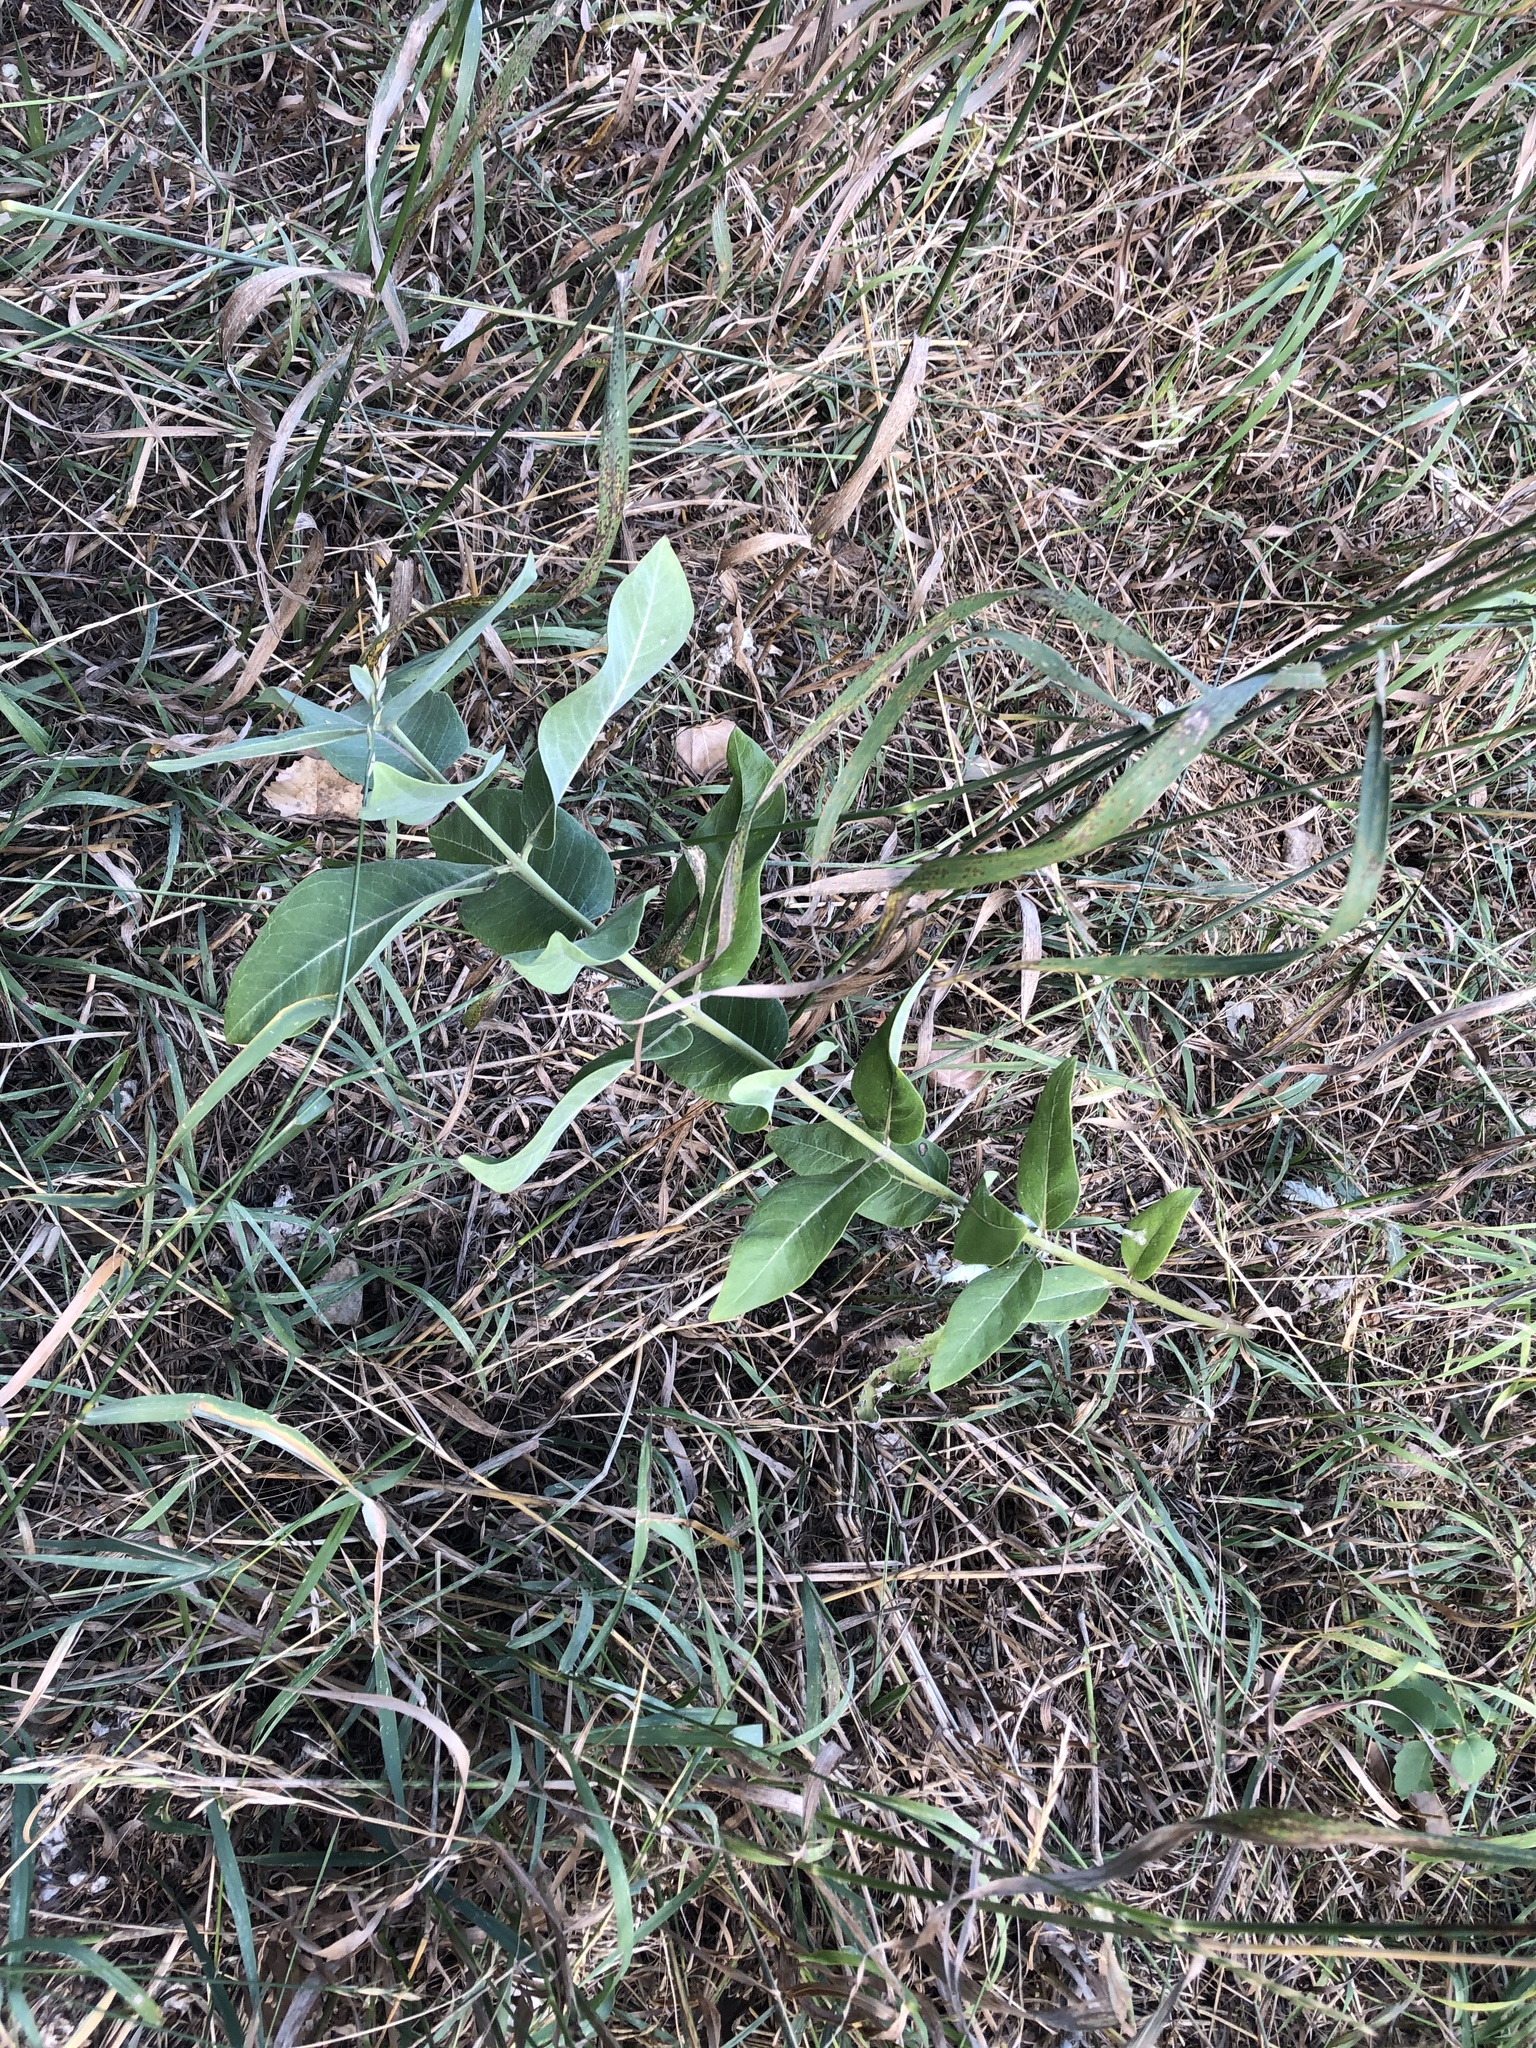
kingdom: Plantae
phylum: Tracheophyta
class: Magnoliopsida
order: Gentianales
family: Apocynaceae
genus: Asclepias
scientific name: Asclepias speciosa
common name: Showy milkweed
